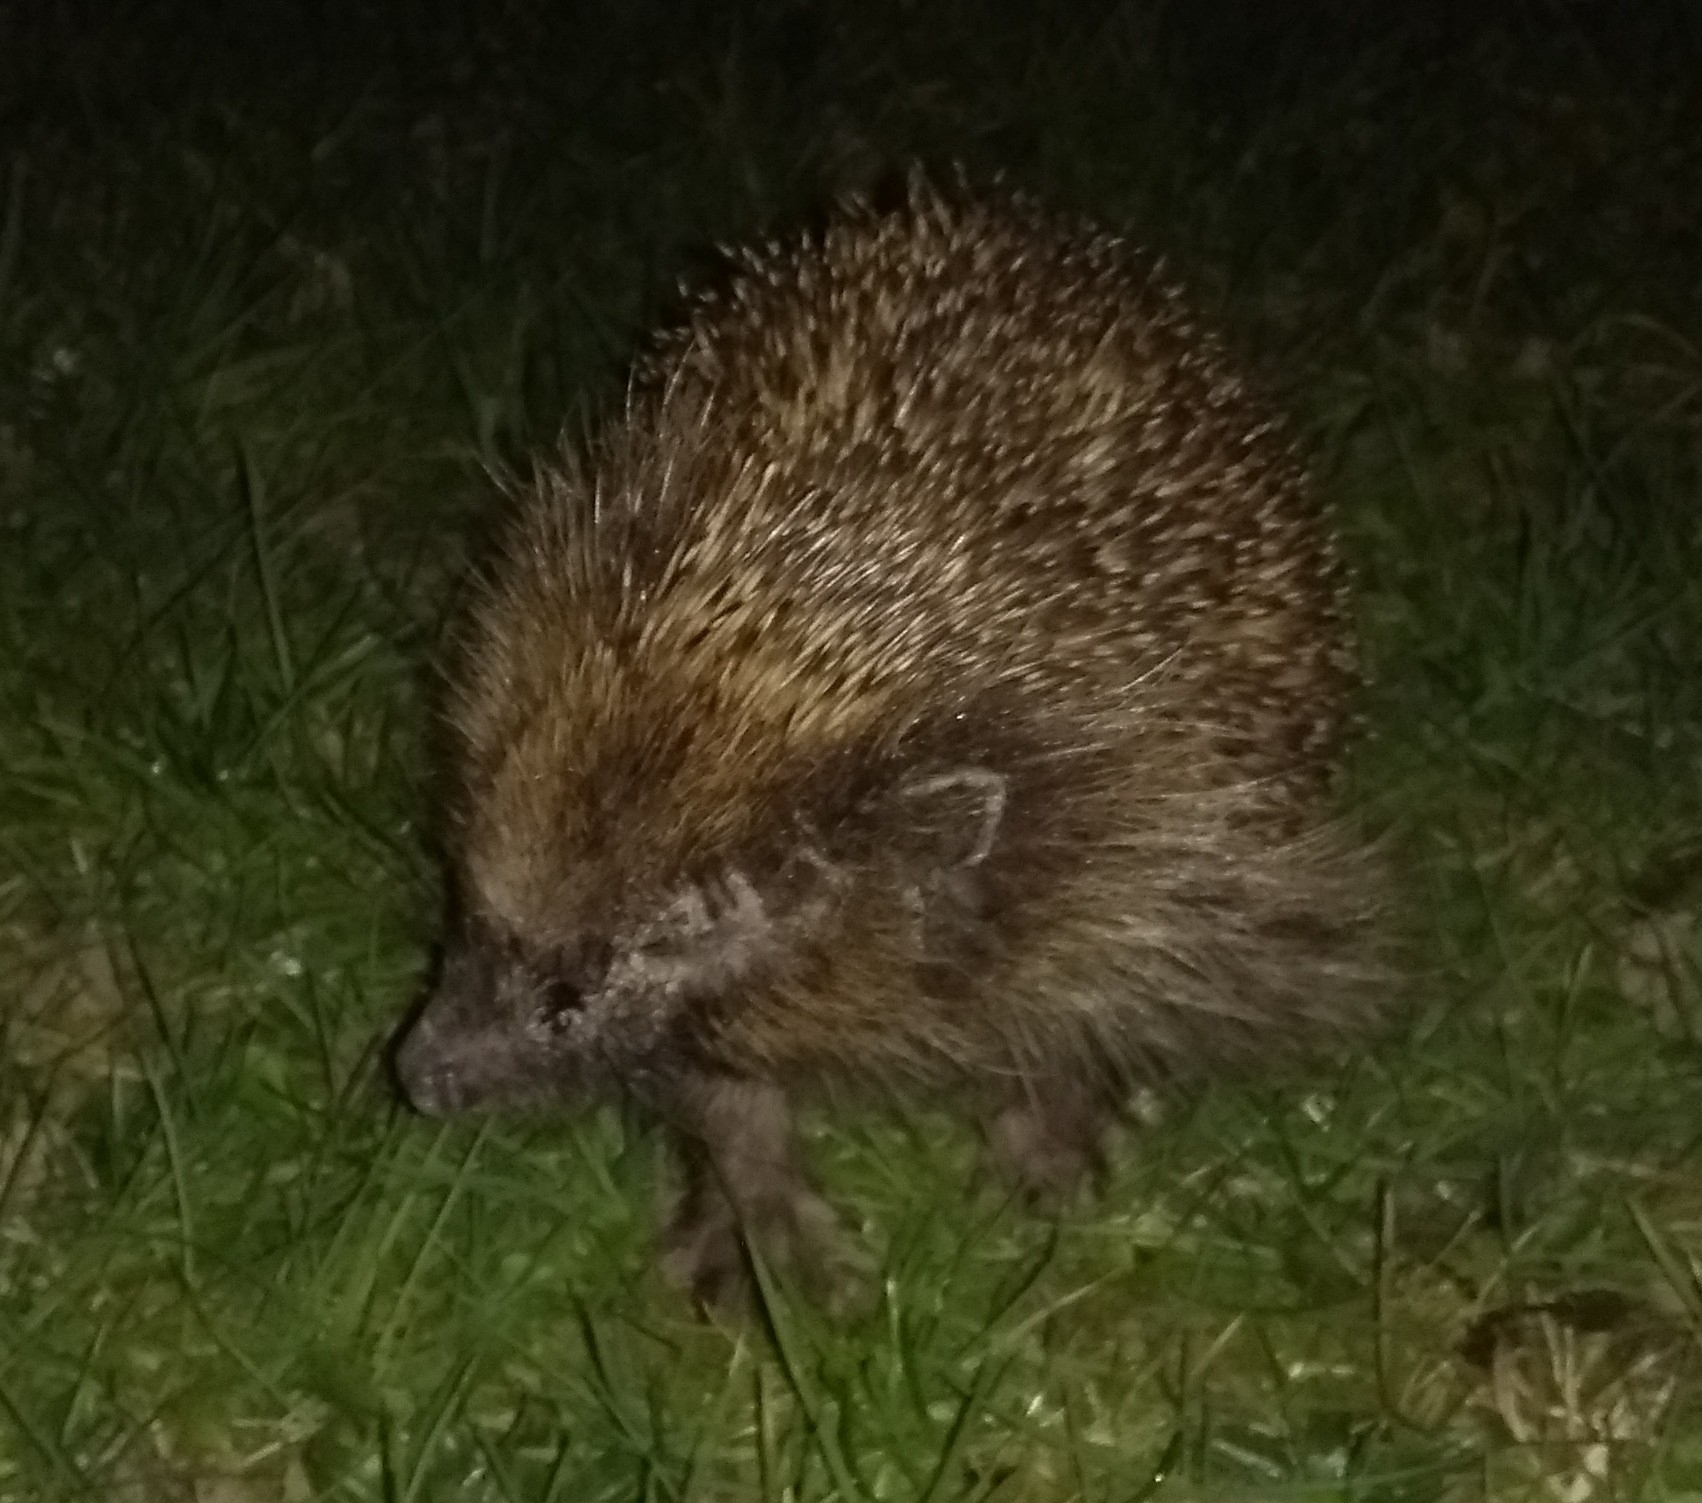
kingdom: Animalia
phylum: Chordata
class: Mammalia
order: Erinaceomorpha
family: Erinaceidae
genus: Erinaceus
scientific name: Erinaceus europaeus
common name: West european hedgehog
